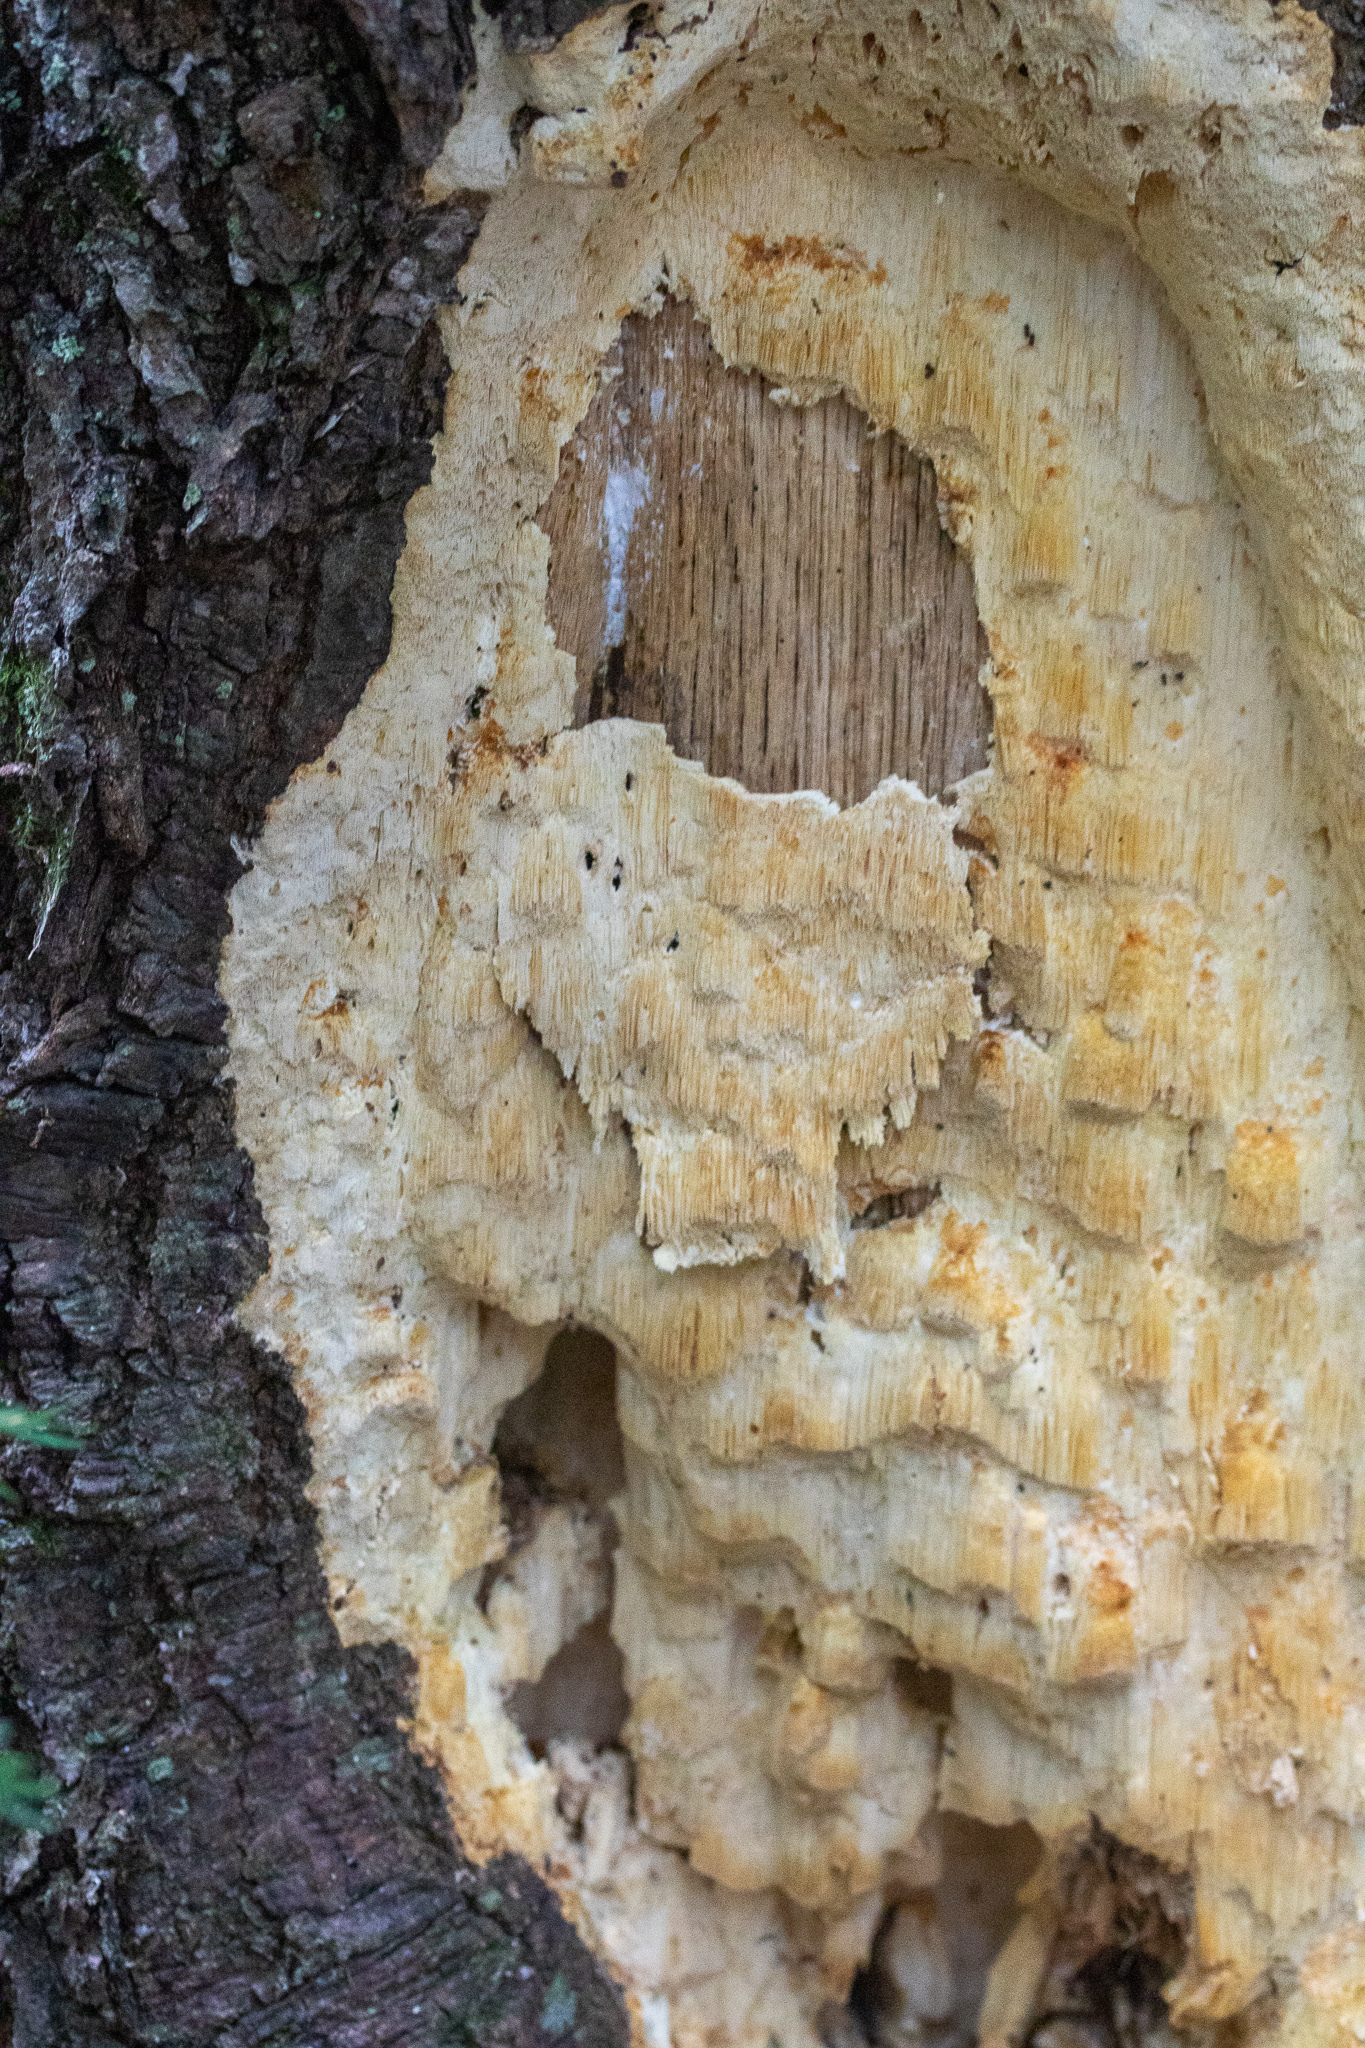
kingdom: Fungi
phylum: Basidiomycota
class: Agaricomycetes
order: Polyporales
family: Polyporaceae
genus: Poriella
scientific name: Poriella subacida
